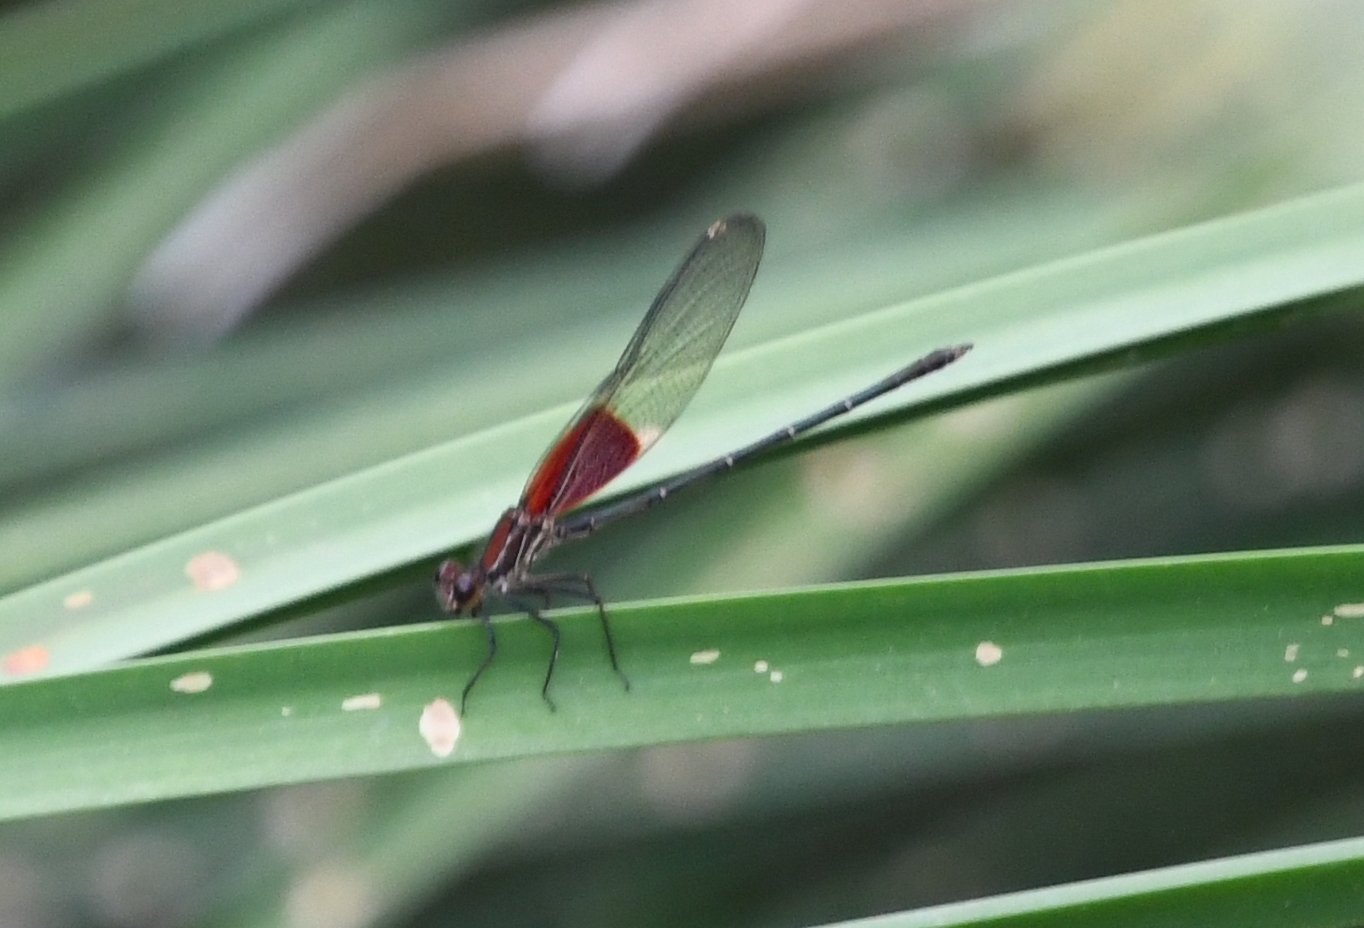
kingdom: Animalia
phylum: Arthropoda
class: Insecta
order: Odonata
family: Calopterygidae
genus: Hetaerina
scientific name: Hetaerina americana
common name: American rubyspot
